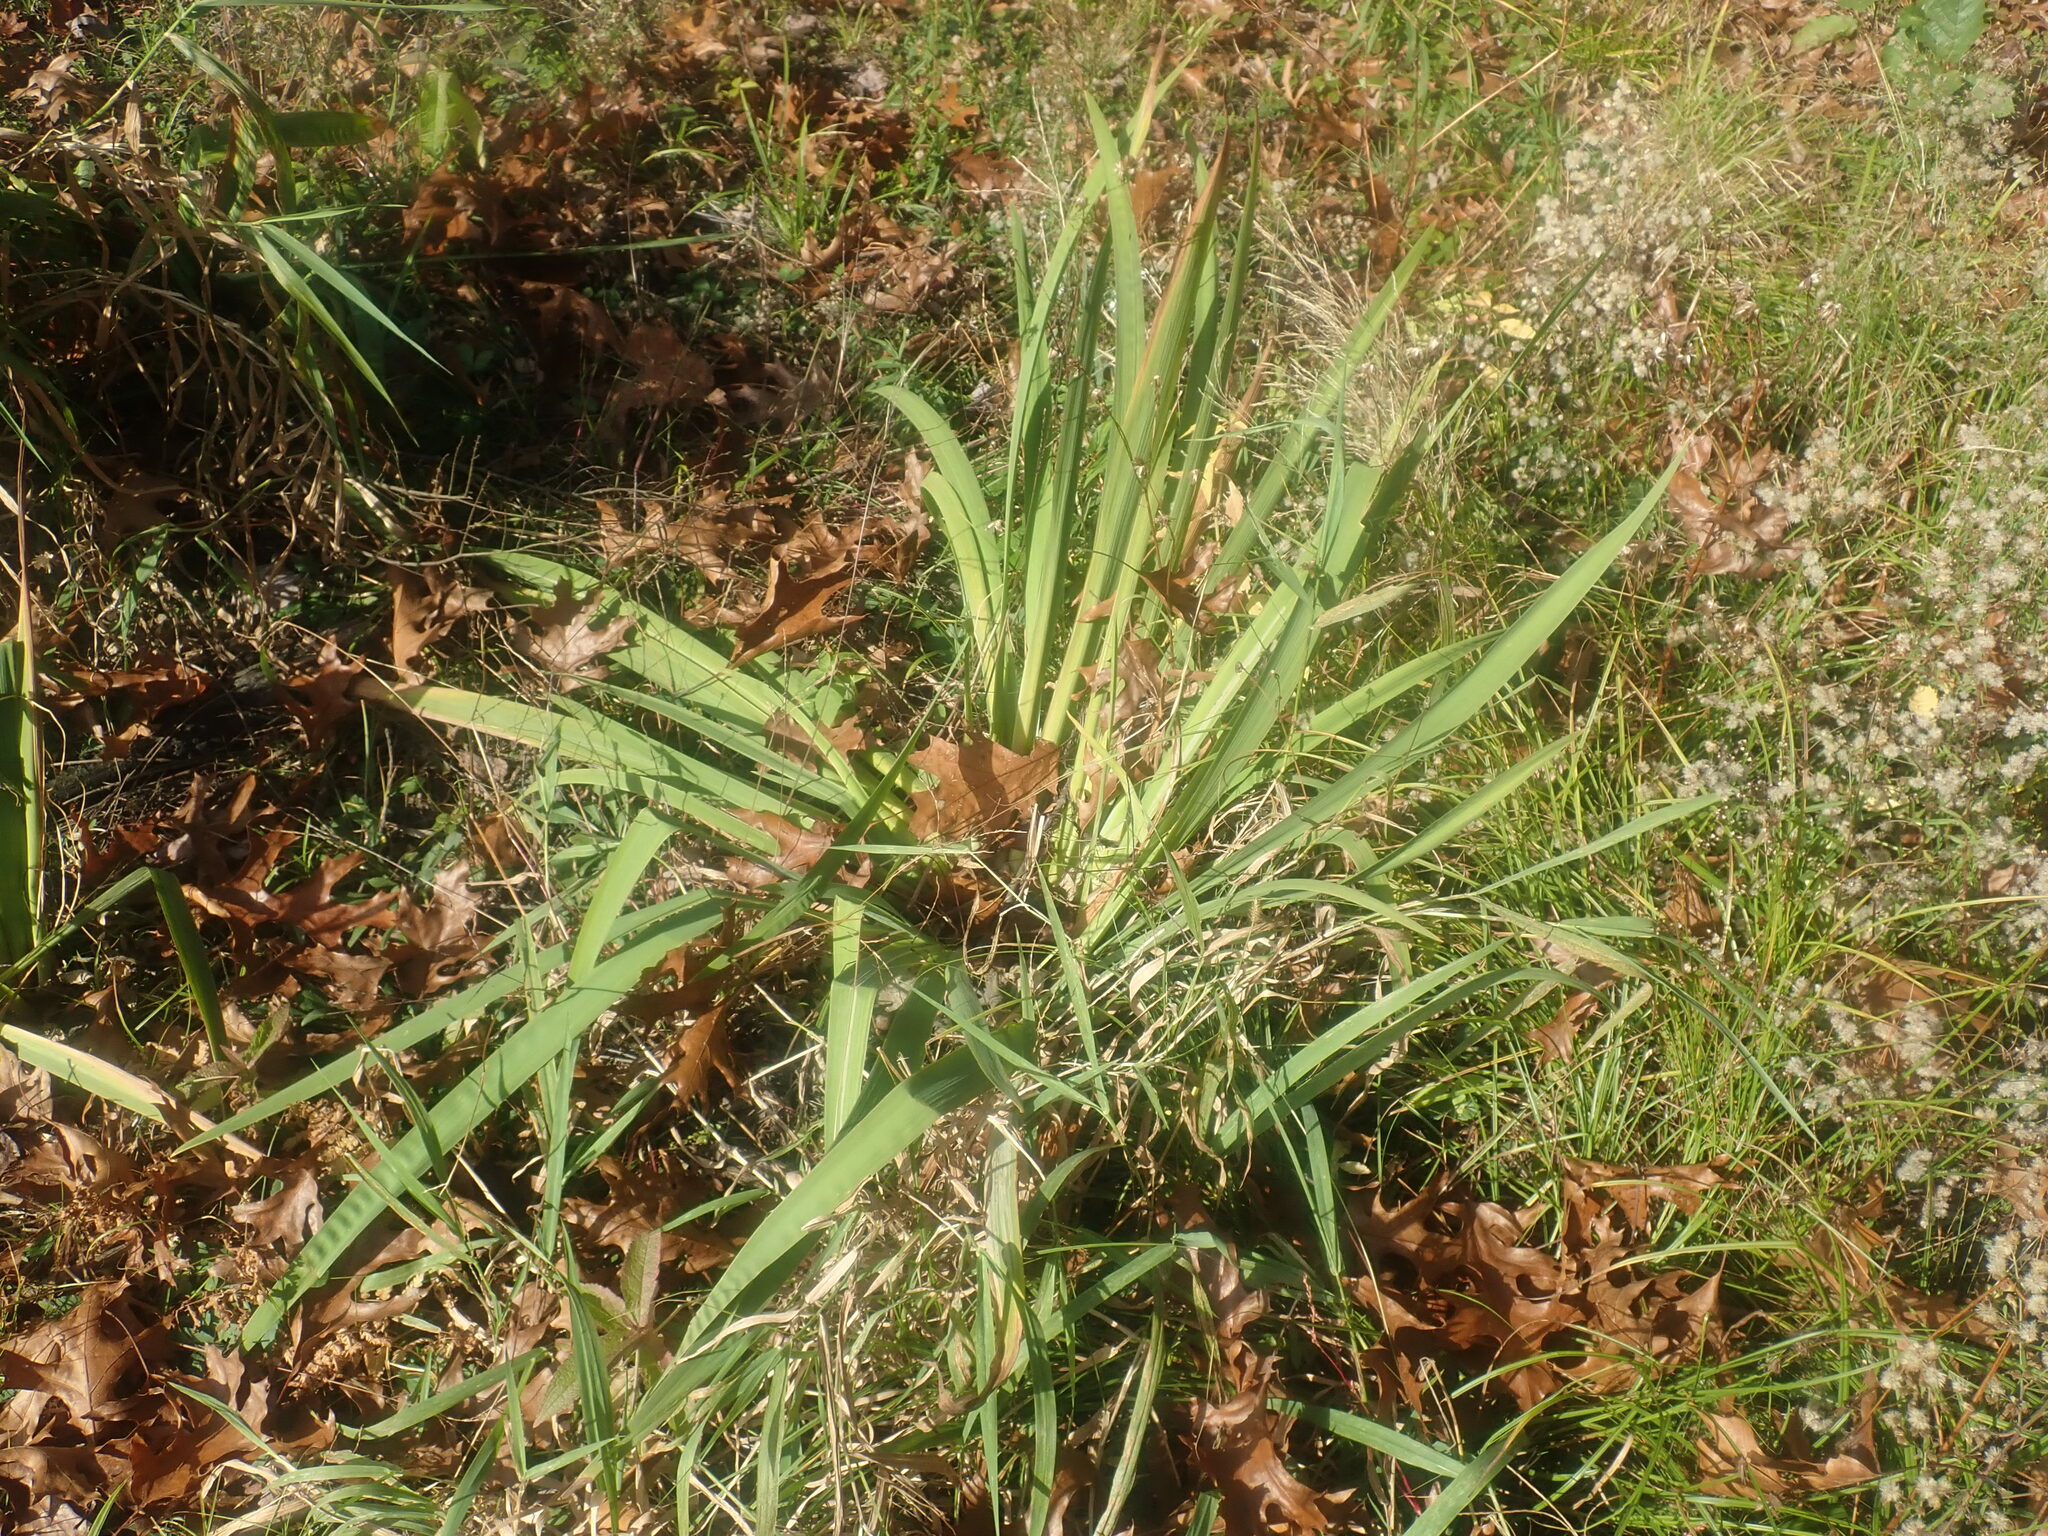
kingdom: Plantae
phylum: Tracheophyta
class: Liliopsida
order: Asparagales
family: Iridaceae
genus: Iris
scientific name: Iris
